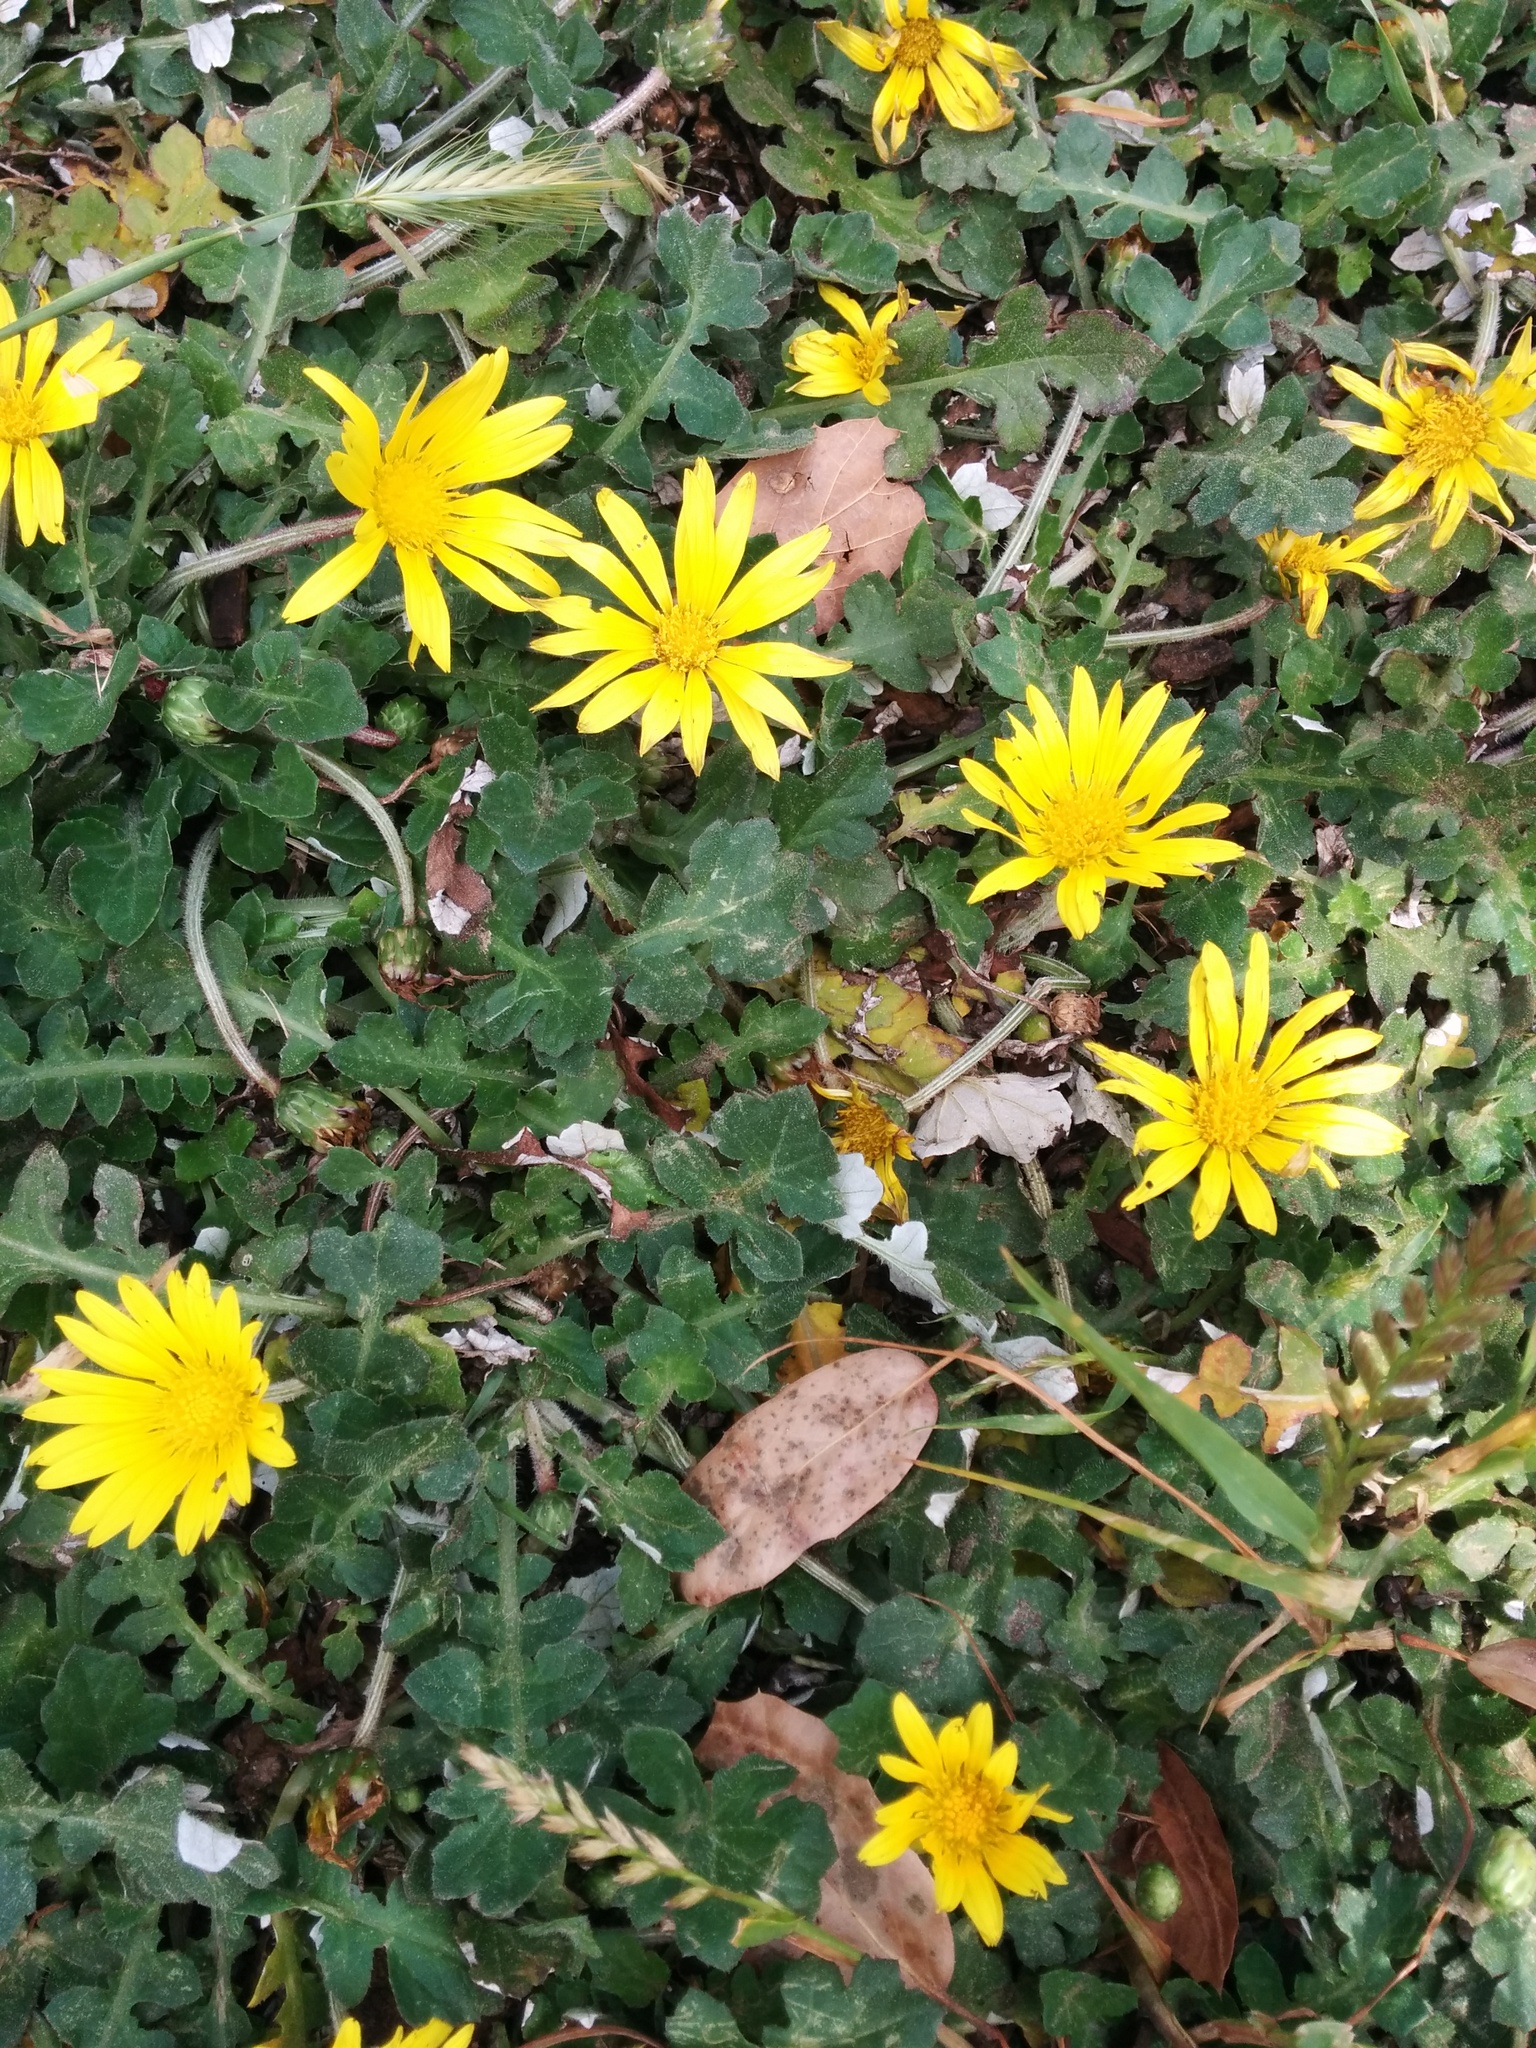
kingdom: Plantae
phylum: Tracheophyta
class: Magnoliopsida
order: Asterales
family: Asteraceae
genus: Arctotheca
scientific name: Arctotheca prostrata
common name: Capeweed
